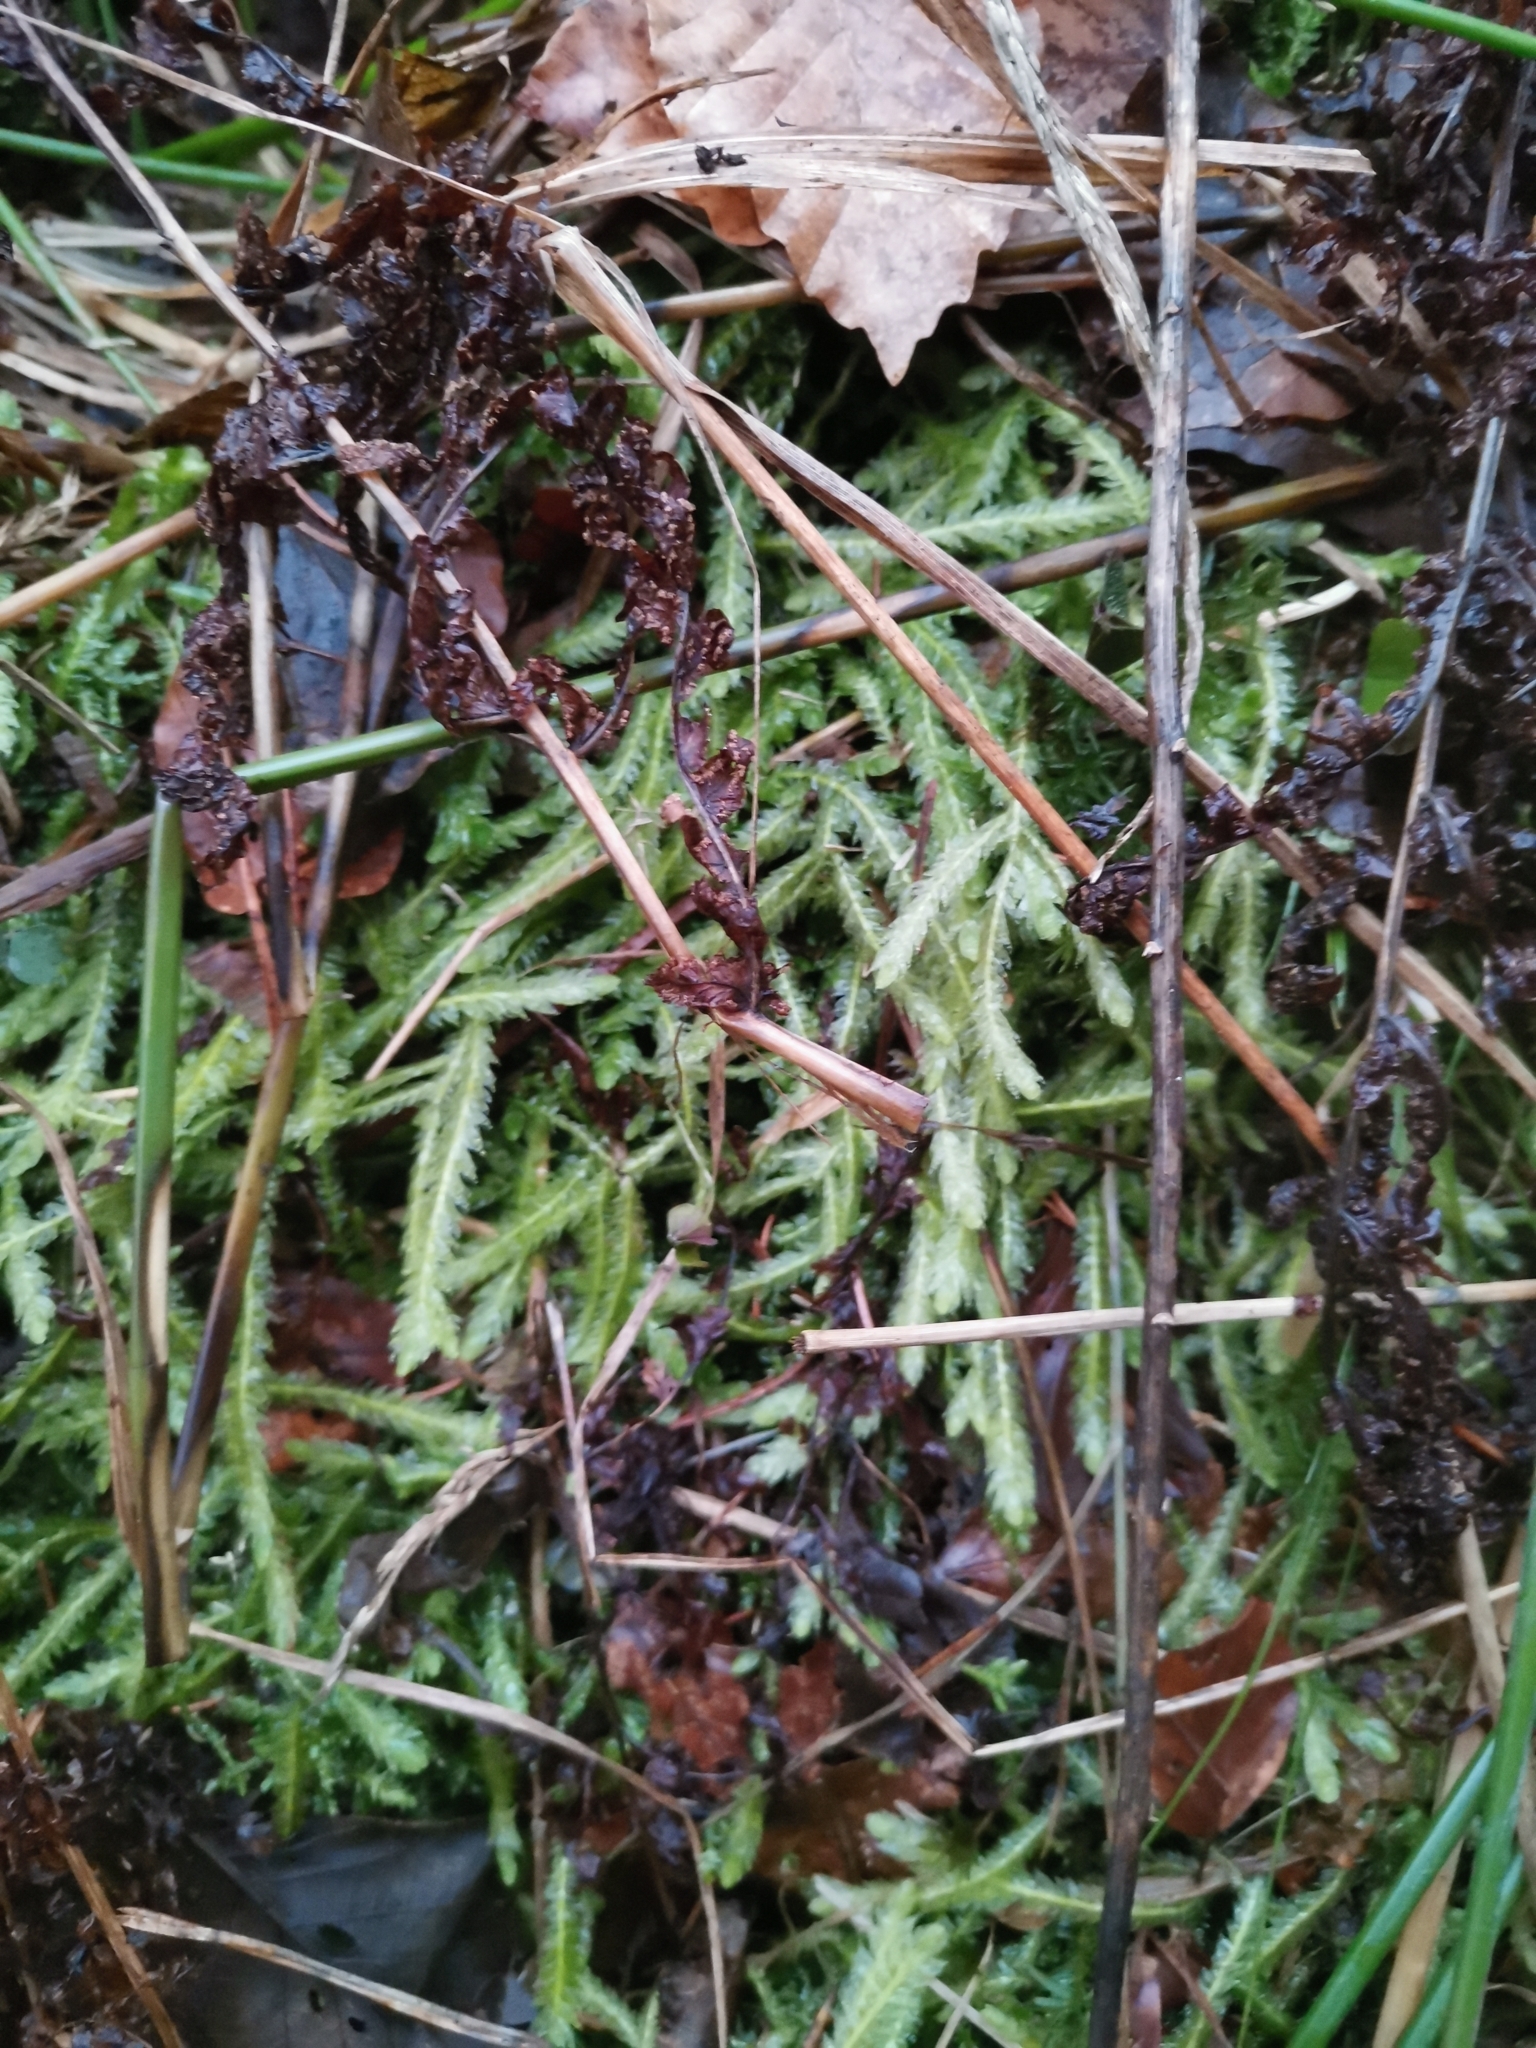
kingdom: Plantae
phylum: Bryophyta
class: Bryopsida
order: Hypnales
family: Plagiotheciaceae
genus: Plagiothecium
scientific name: Plagiothecium undulatum
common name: Waved silk-moss
